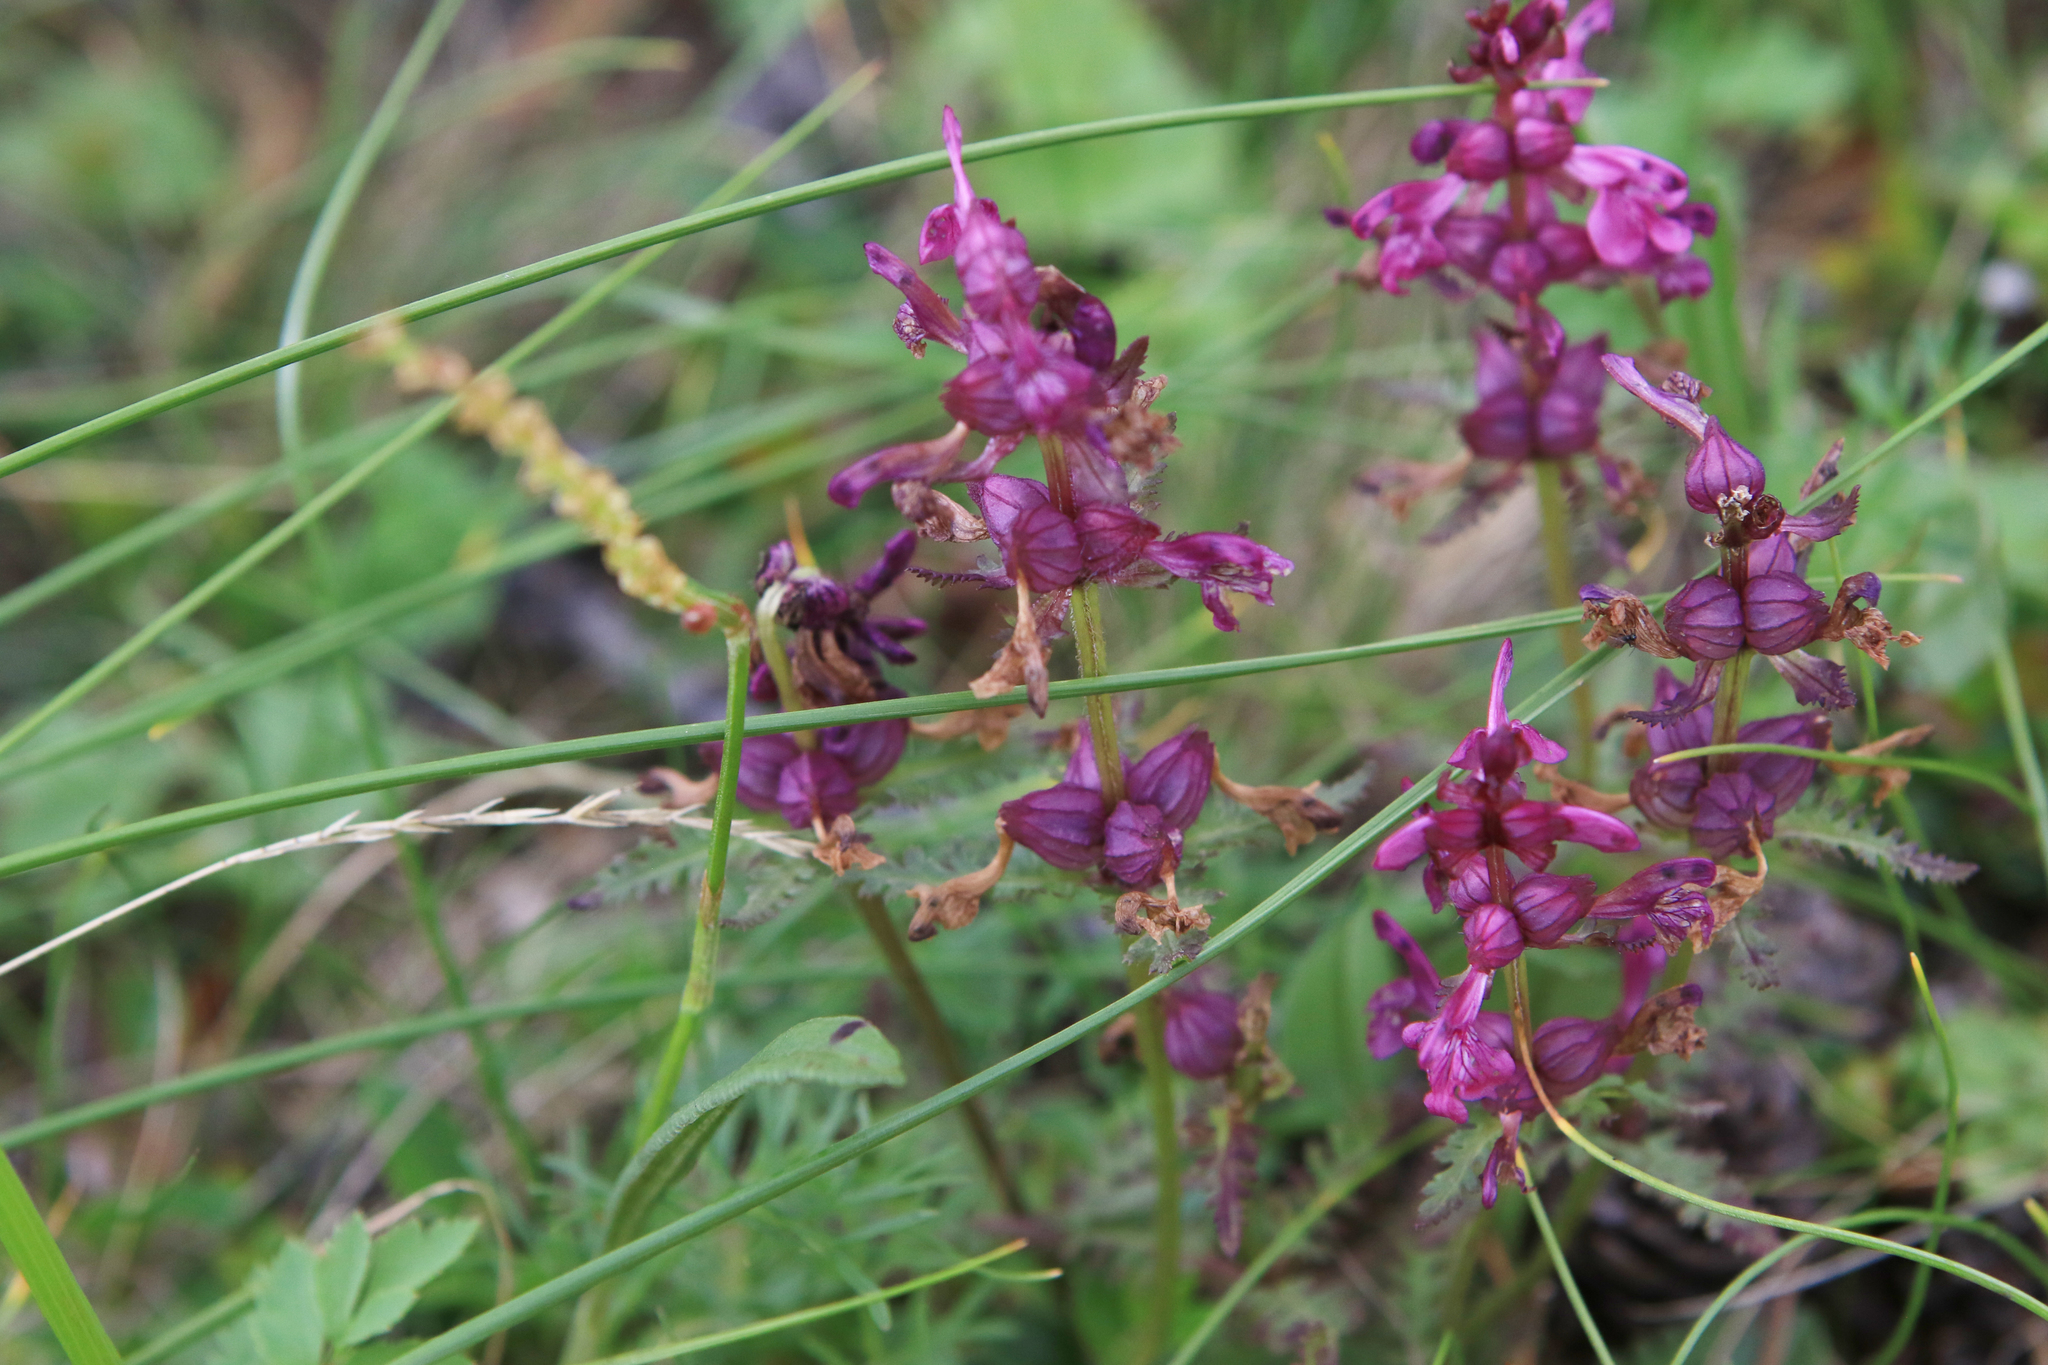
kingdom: Plantae
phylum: Tracheophyta
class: Magnoliopsida
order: Lamiales
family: Orobanchaceae
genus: Pedicularis
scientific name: Pedicularis verticillata
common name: Whorled lousewort
